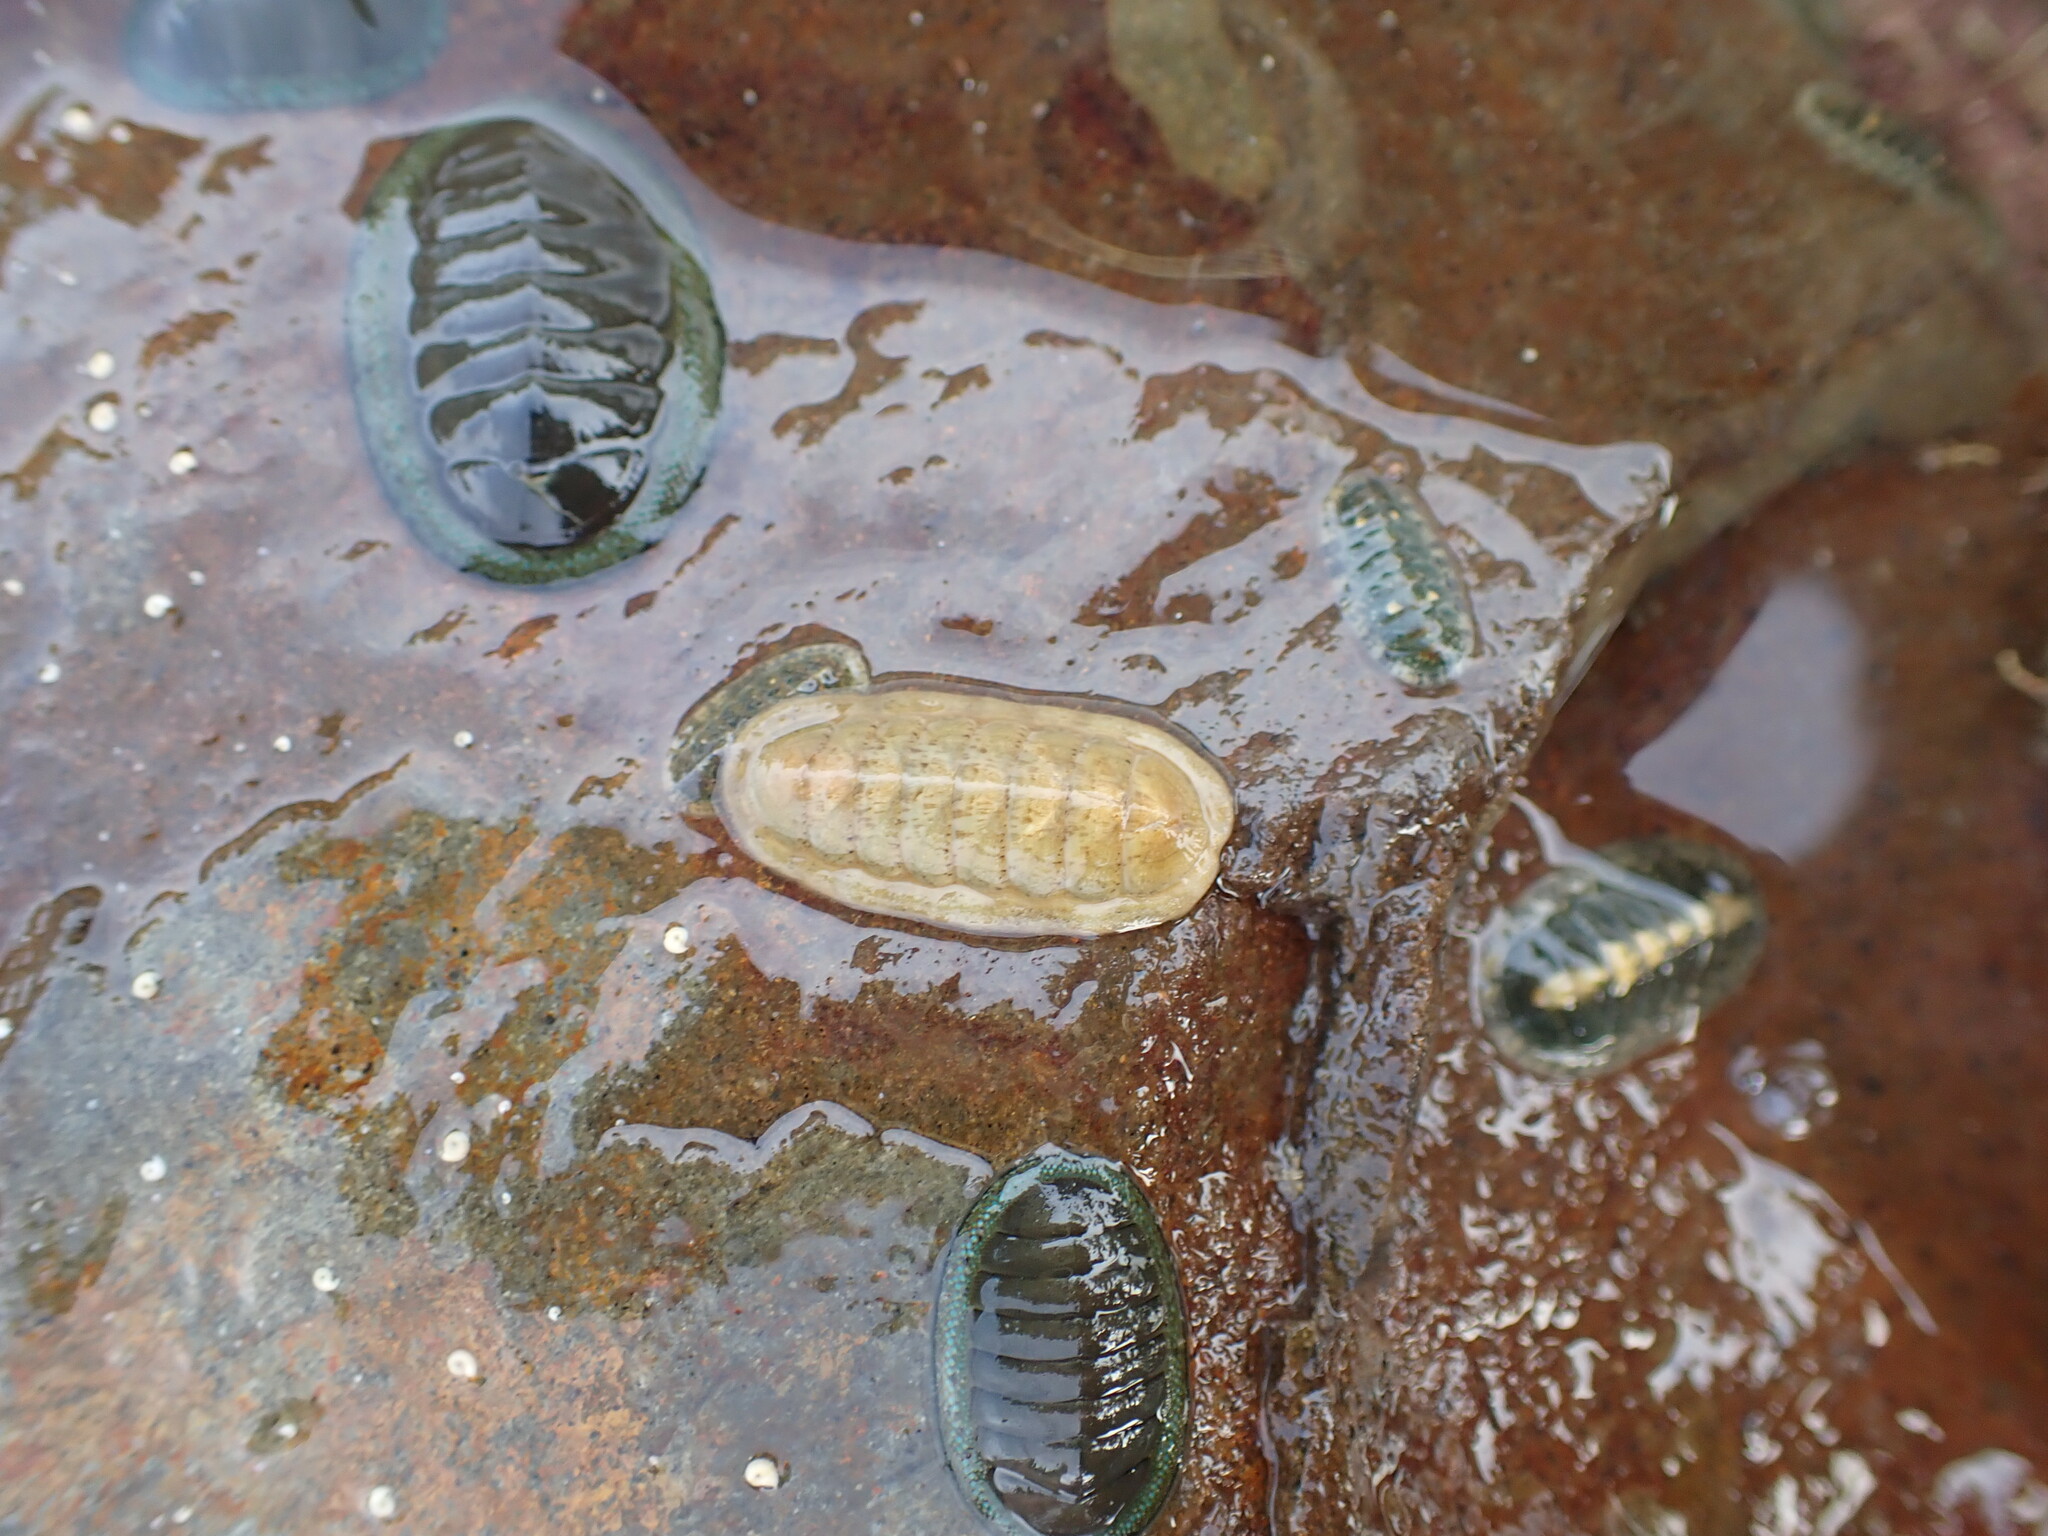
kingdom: Animalia
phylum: Mollusca
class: Polyplacophora
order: Chitonida
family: Ischnochitonidae
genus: Ischnochiton
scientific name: Ischnochiton maorianus
